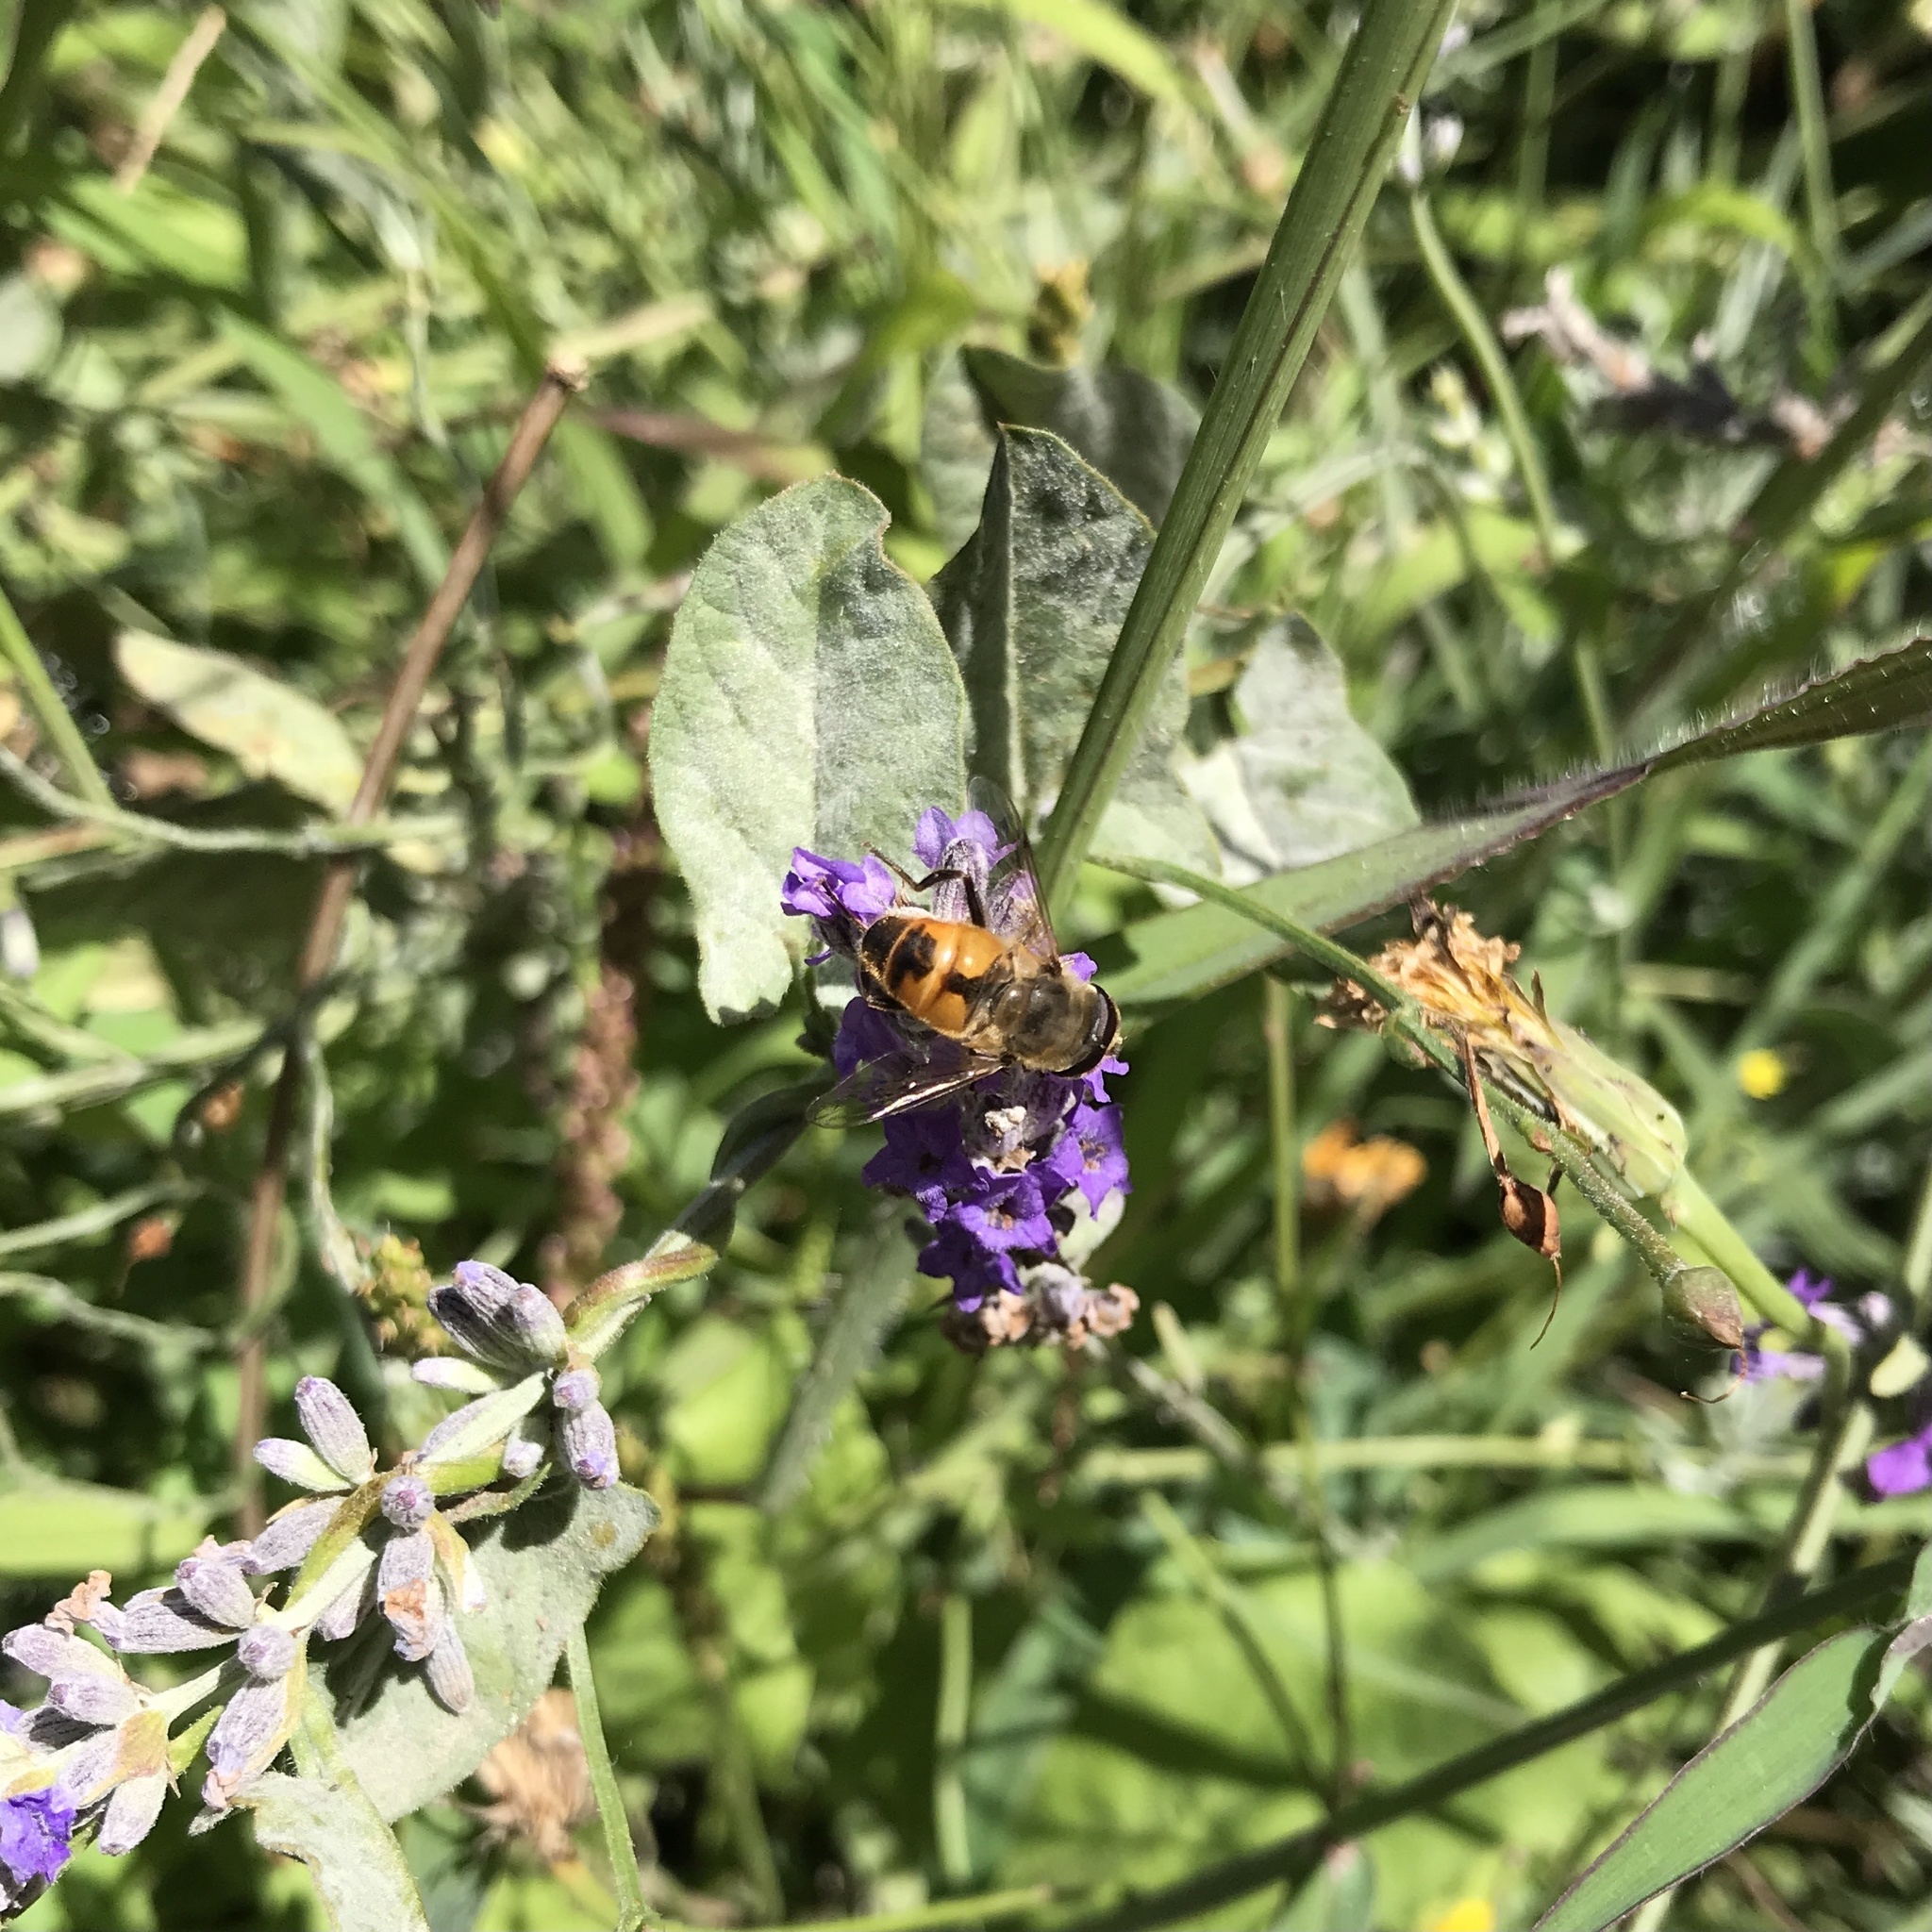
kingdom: Animalia
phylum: Arthropoda
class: Insecta
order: Diptera
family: Syrphidae
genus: Eristalis
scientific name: Eristalis tenax
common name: Drone fly
